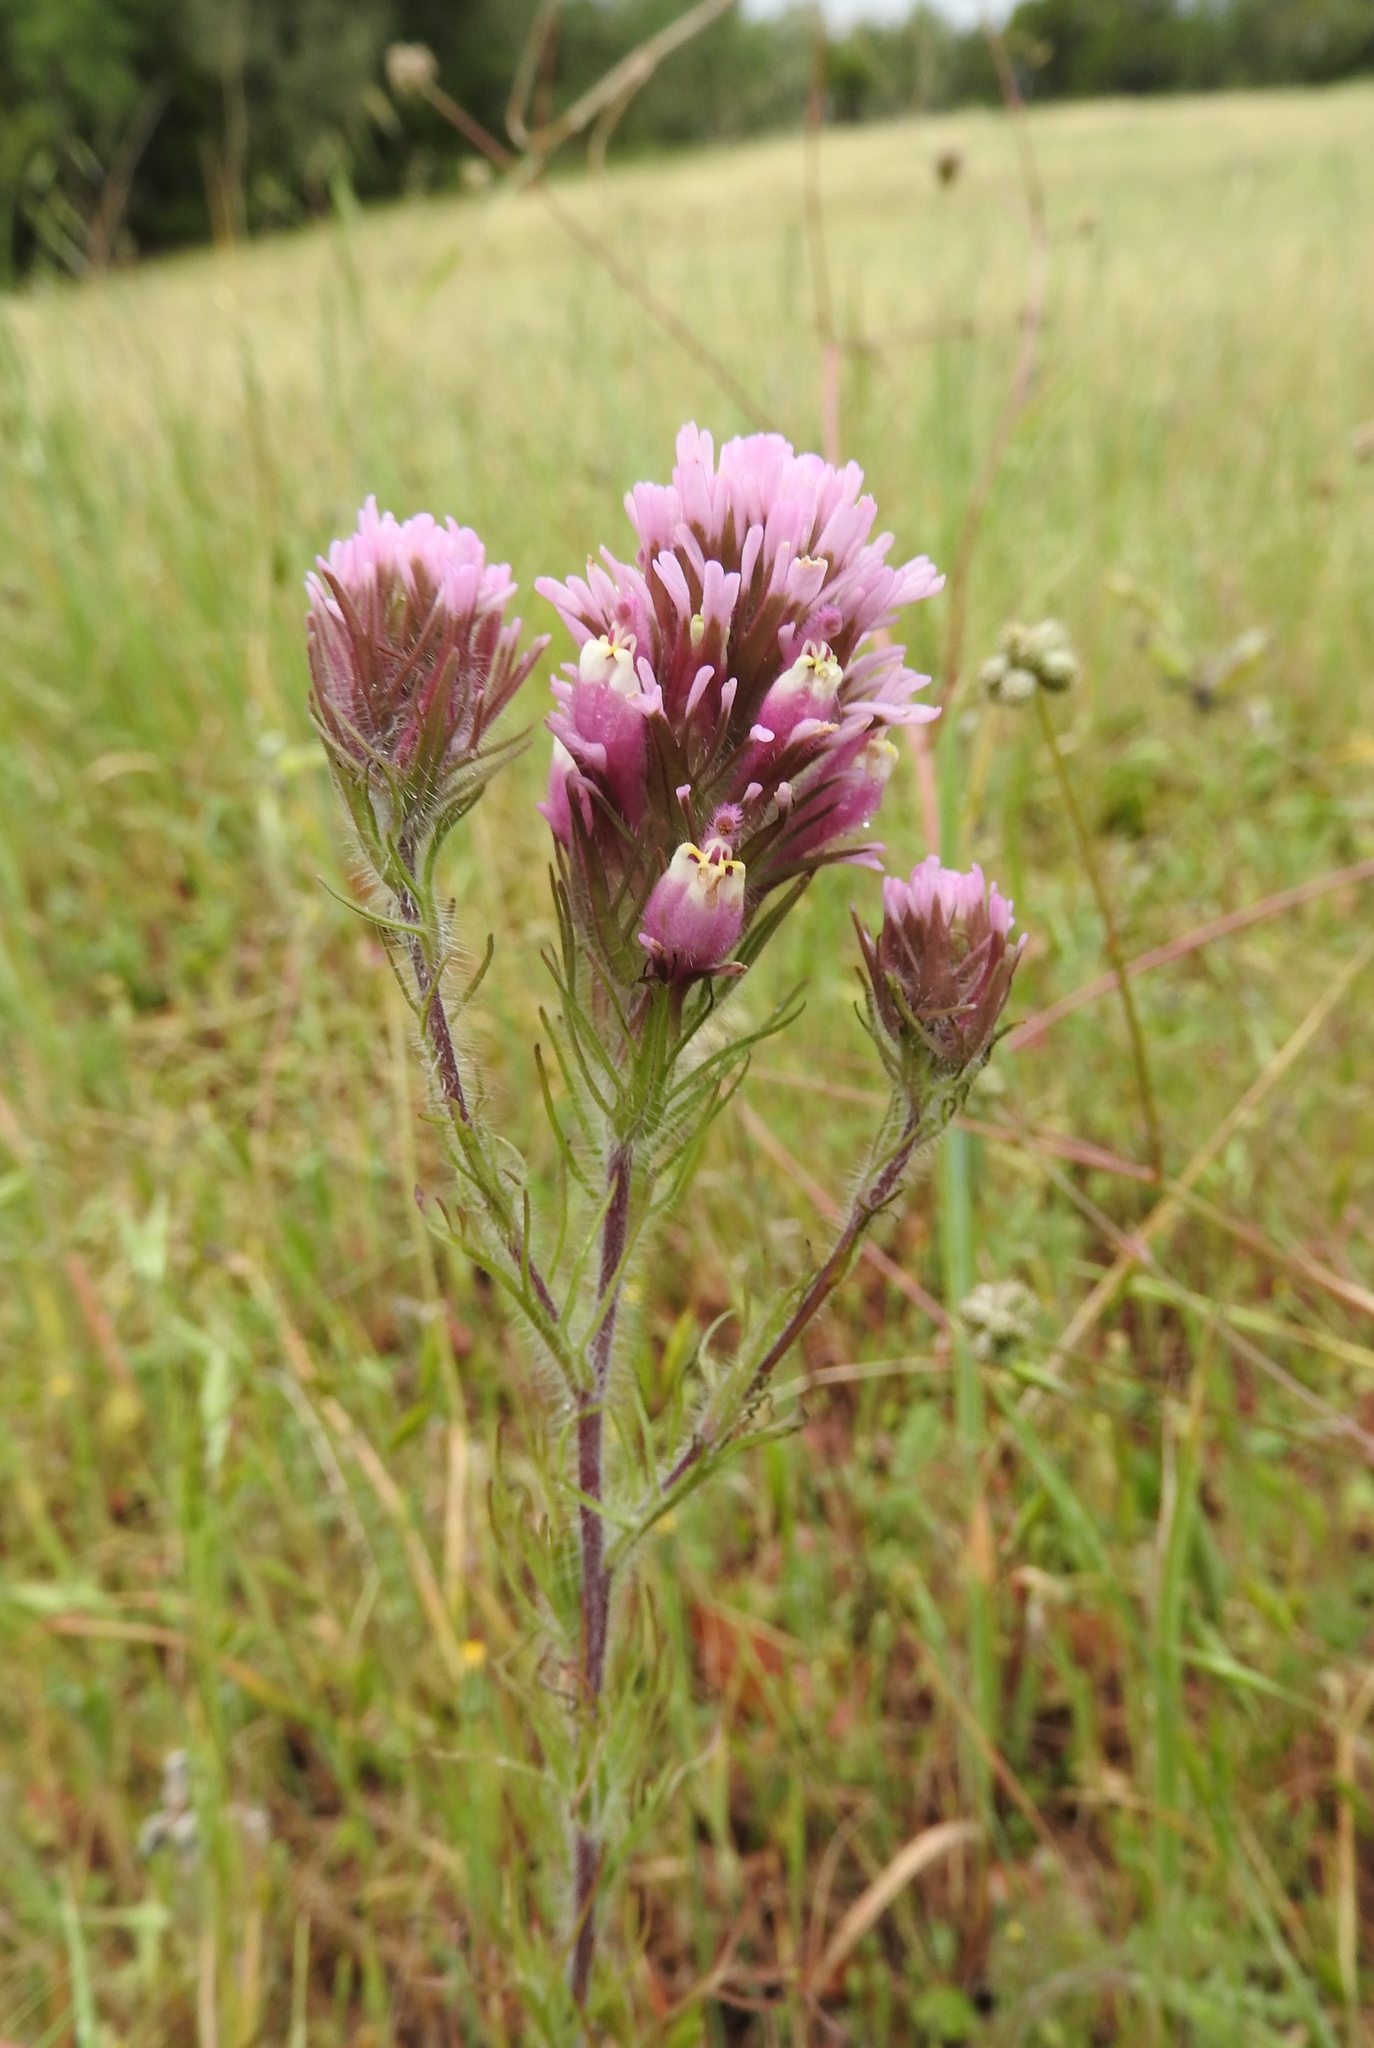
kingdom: Plantae
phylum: Tracheophyta
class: Magnoliopsida
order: Lamiales
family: Orobanchaceae
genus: Castilleja
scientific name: Castilleja exserta
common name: Purple owl-clover
